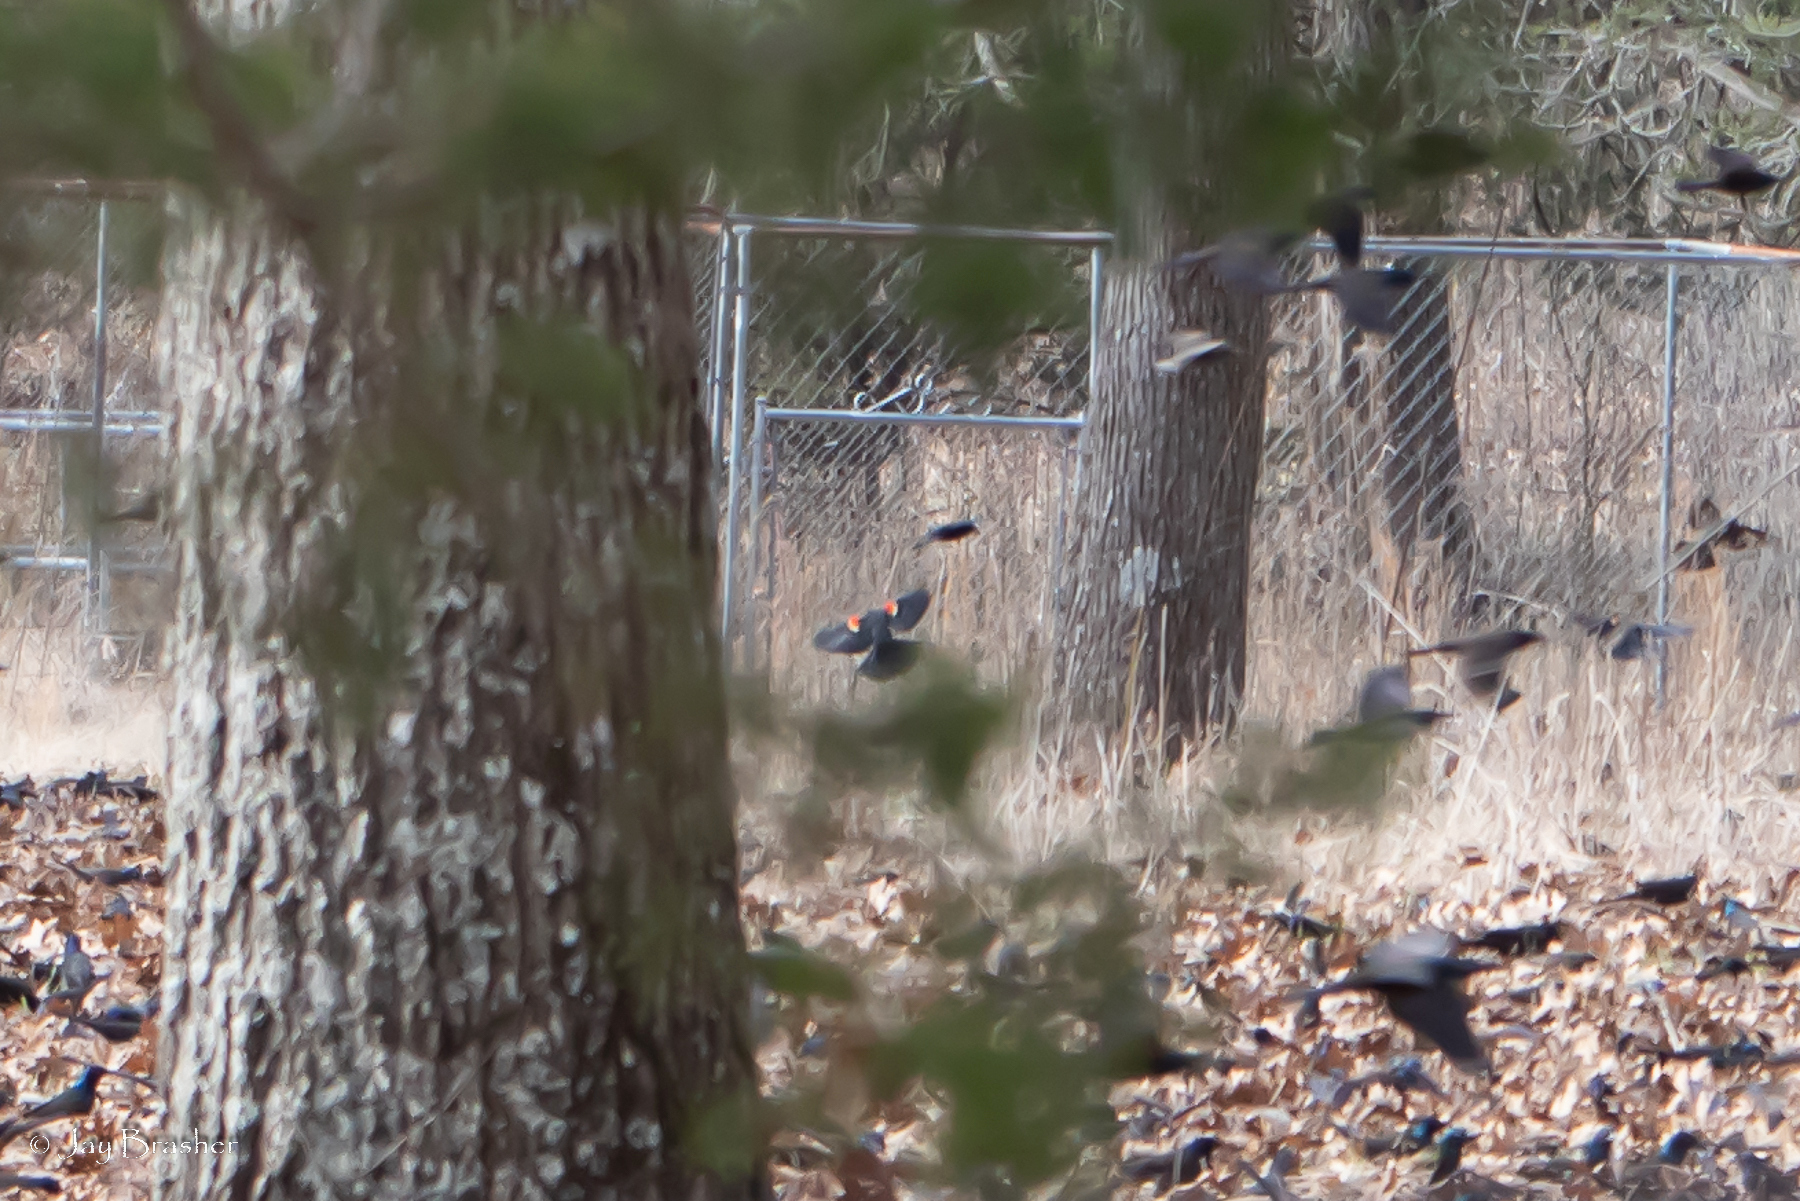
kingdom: Animalia
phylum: Chordata
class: Aves
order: Passeriformes
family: Icteridae
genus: Agelaius
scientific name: Agelaius phoeniceus
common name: Red-winged blackbird
